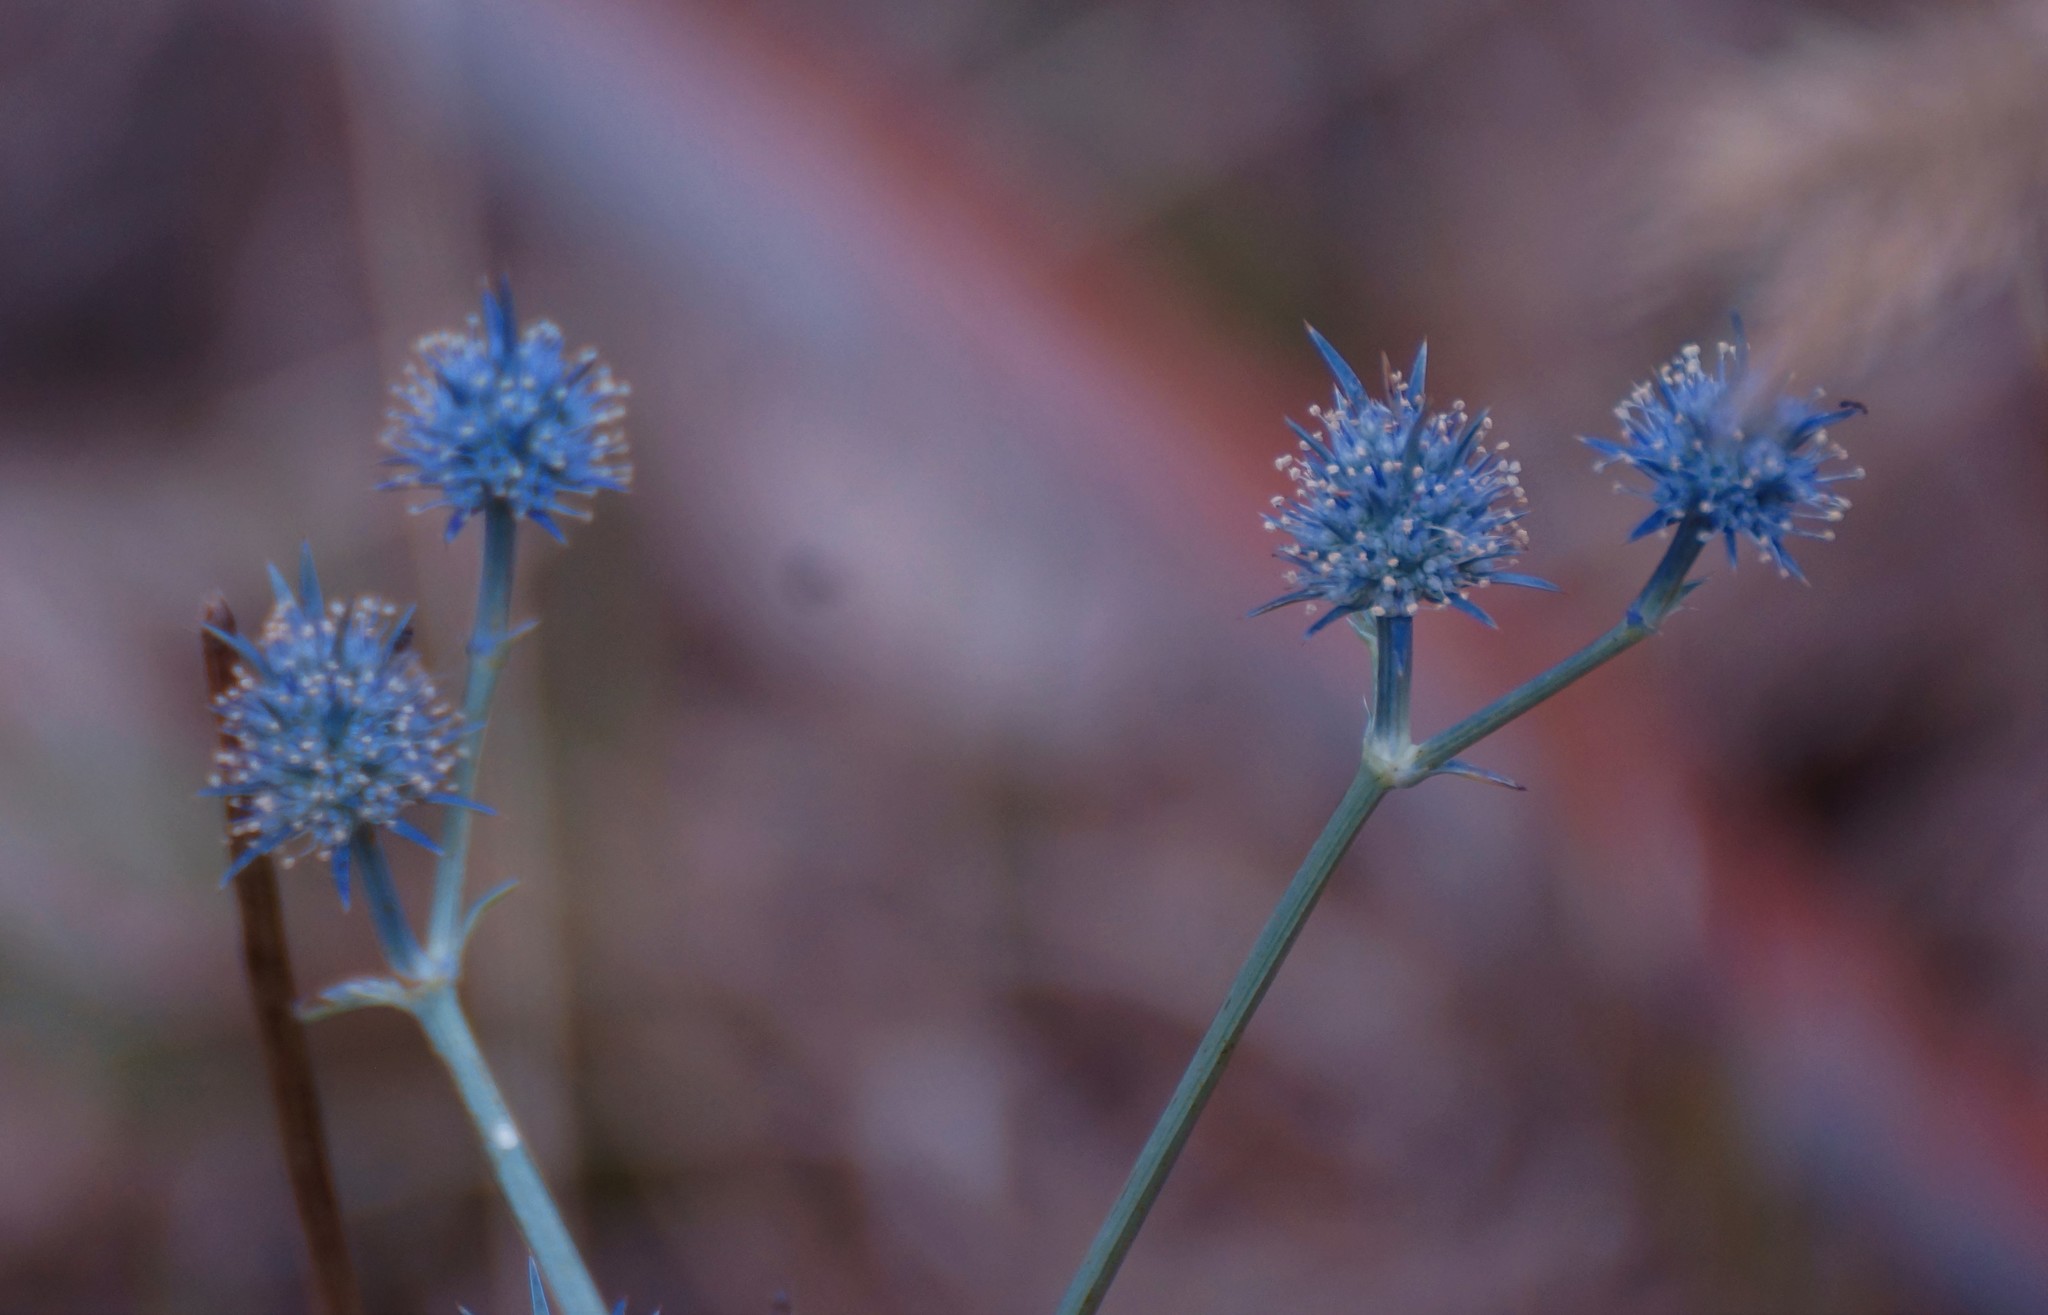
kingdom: Plantae
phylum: Tracheophyta
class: Magnoliopsida
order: Apiales
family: Apiaceae
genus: Eryngium
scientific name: Eryngium ovinum
